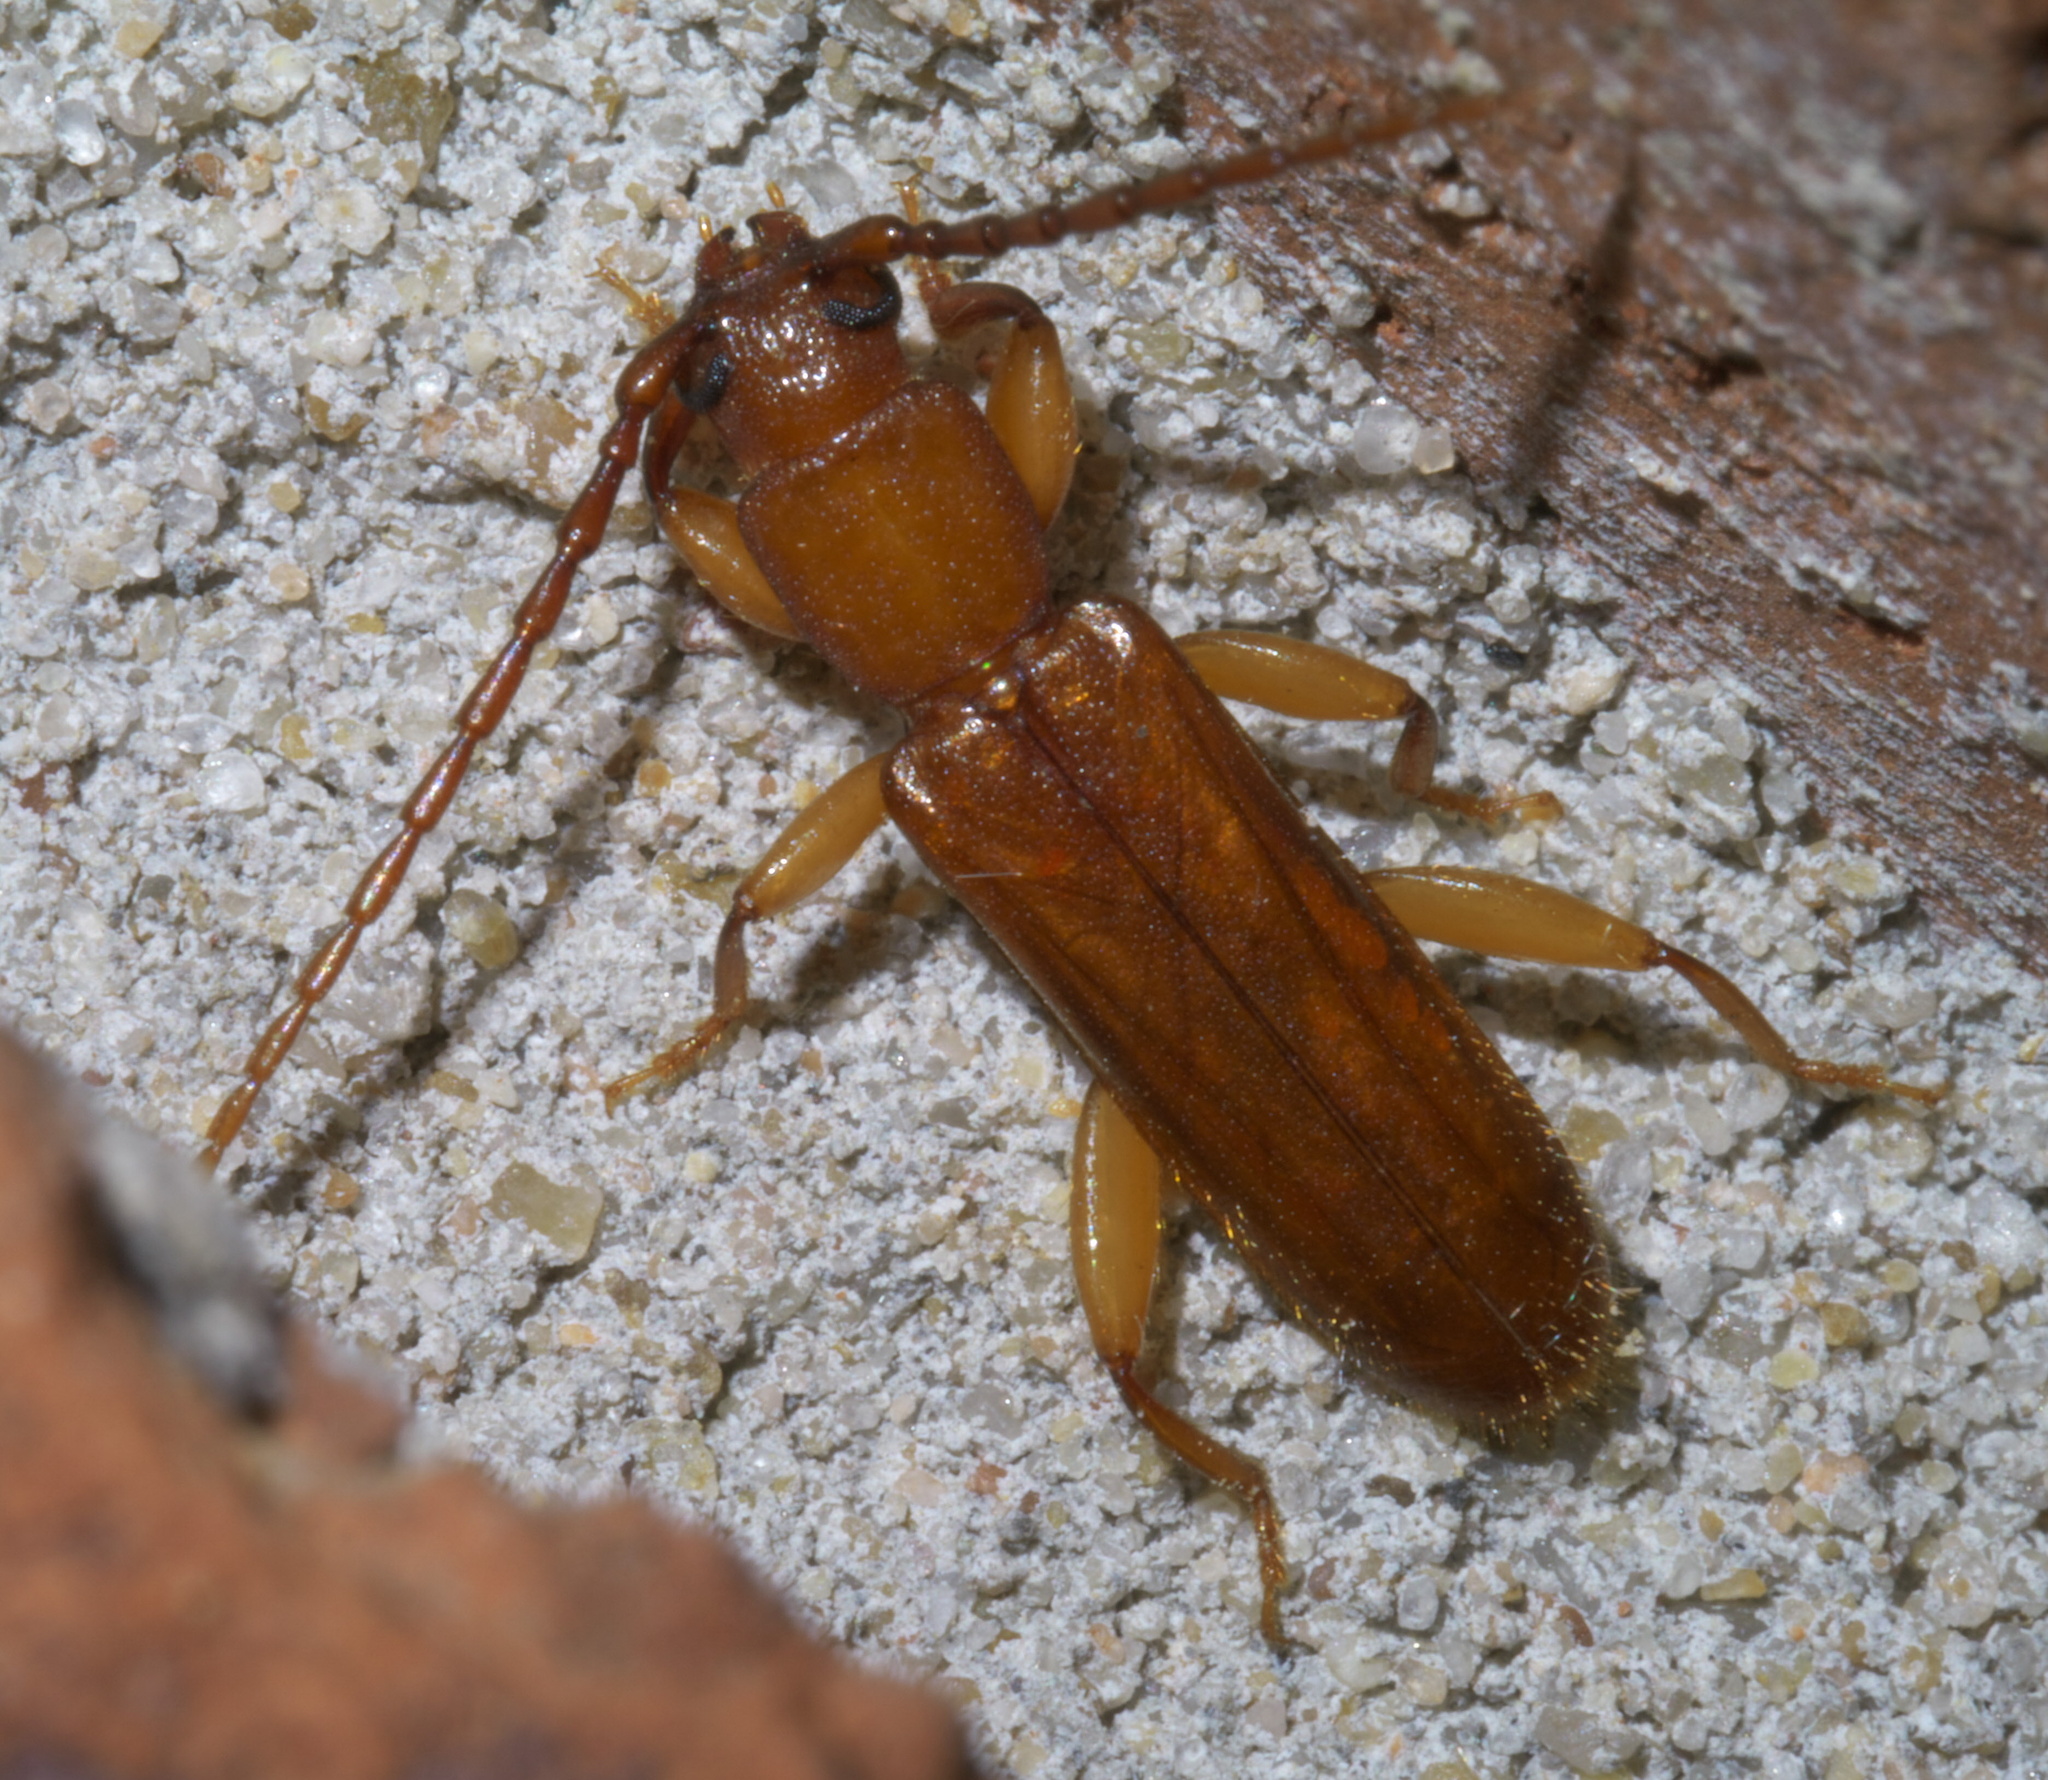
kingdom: Animalia
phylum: Arthropoda
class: Insecta
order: Coleoptera
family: Cerambycidae
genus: Smodicum
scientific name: Smodicum cucujiforme
